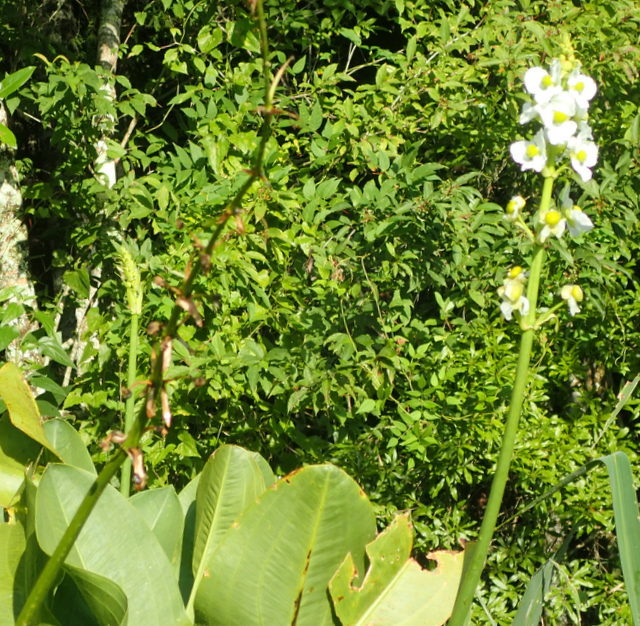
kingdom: Plantae
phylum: Tracheophyta
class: Liliopsida
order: Alismatales
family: Alismataceae
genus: Sagittaria
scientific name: Sagittaria lancifolia
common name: Lance-leaf arrowhead
